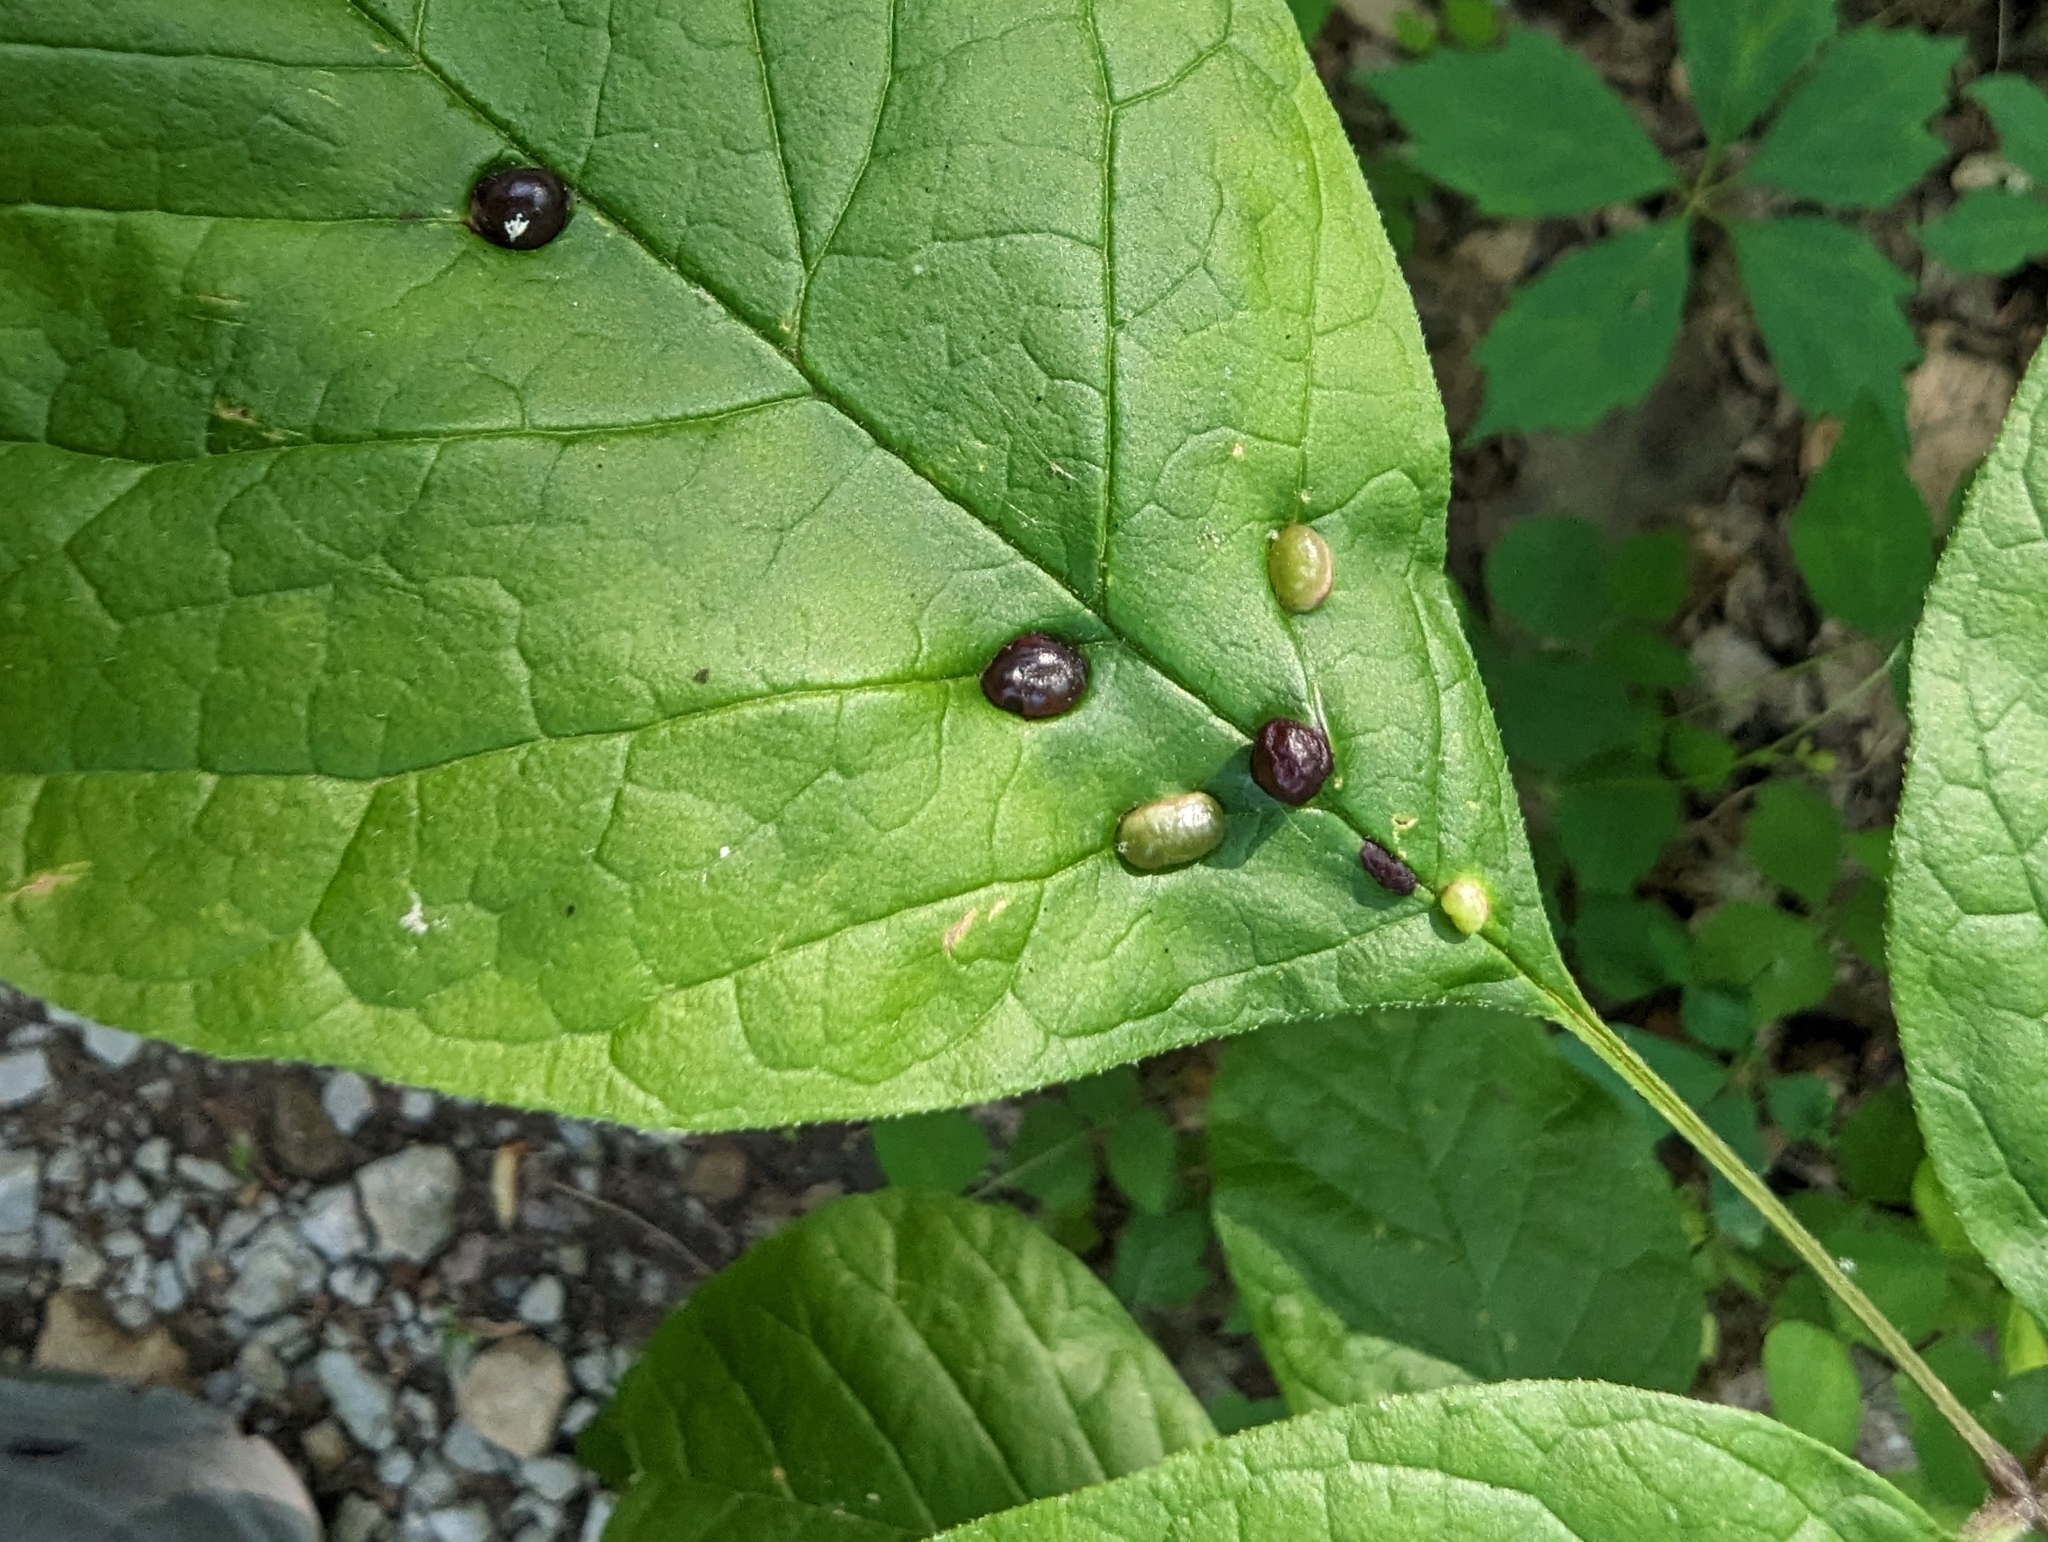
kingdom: Animalia
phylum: Arthropoda
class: Insecta
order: Diptera
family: Cecidomyiidae
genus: Dasineura
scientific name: Dasineura pellex
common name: Ash bullet gall midge
